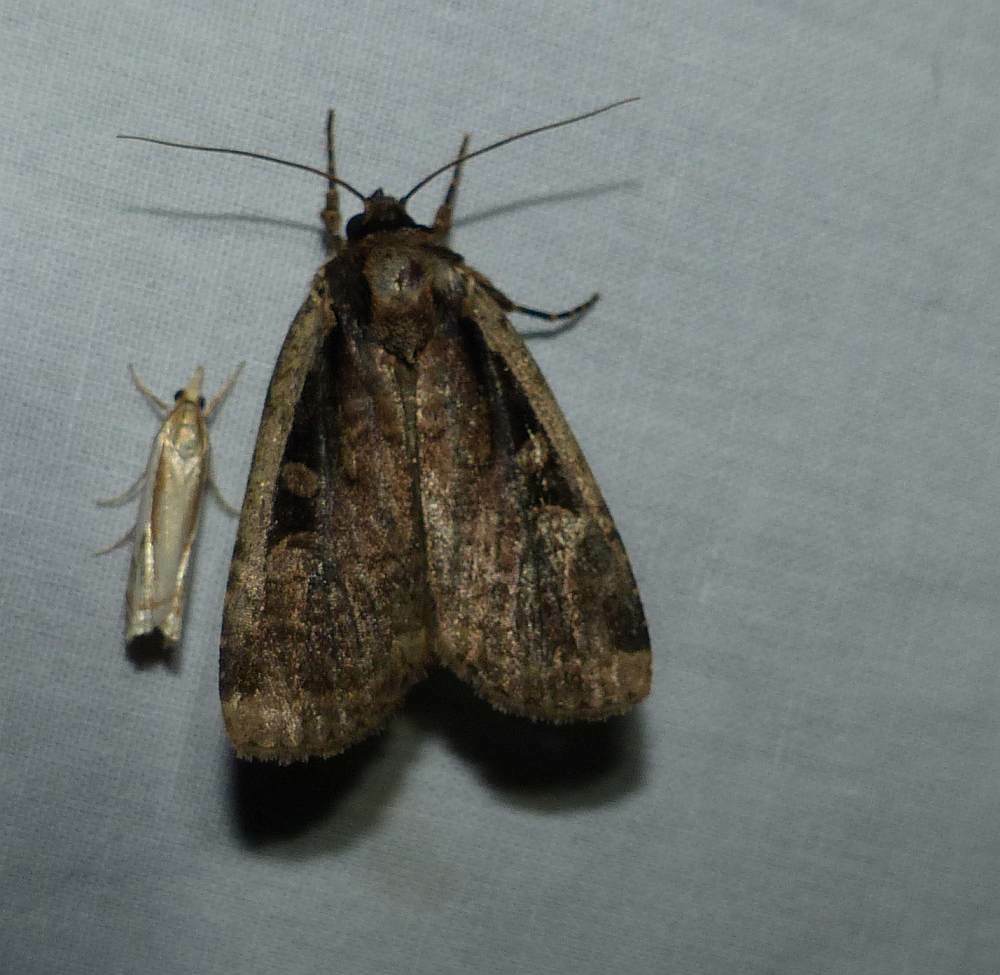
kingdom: Animalia
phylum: Arthropoda
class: Insecta
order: Lepidoptera
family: Noctuidae
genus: Eueretagrotis
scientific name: Eueretagrotis sigmoides
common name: Sigmoid dart
